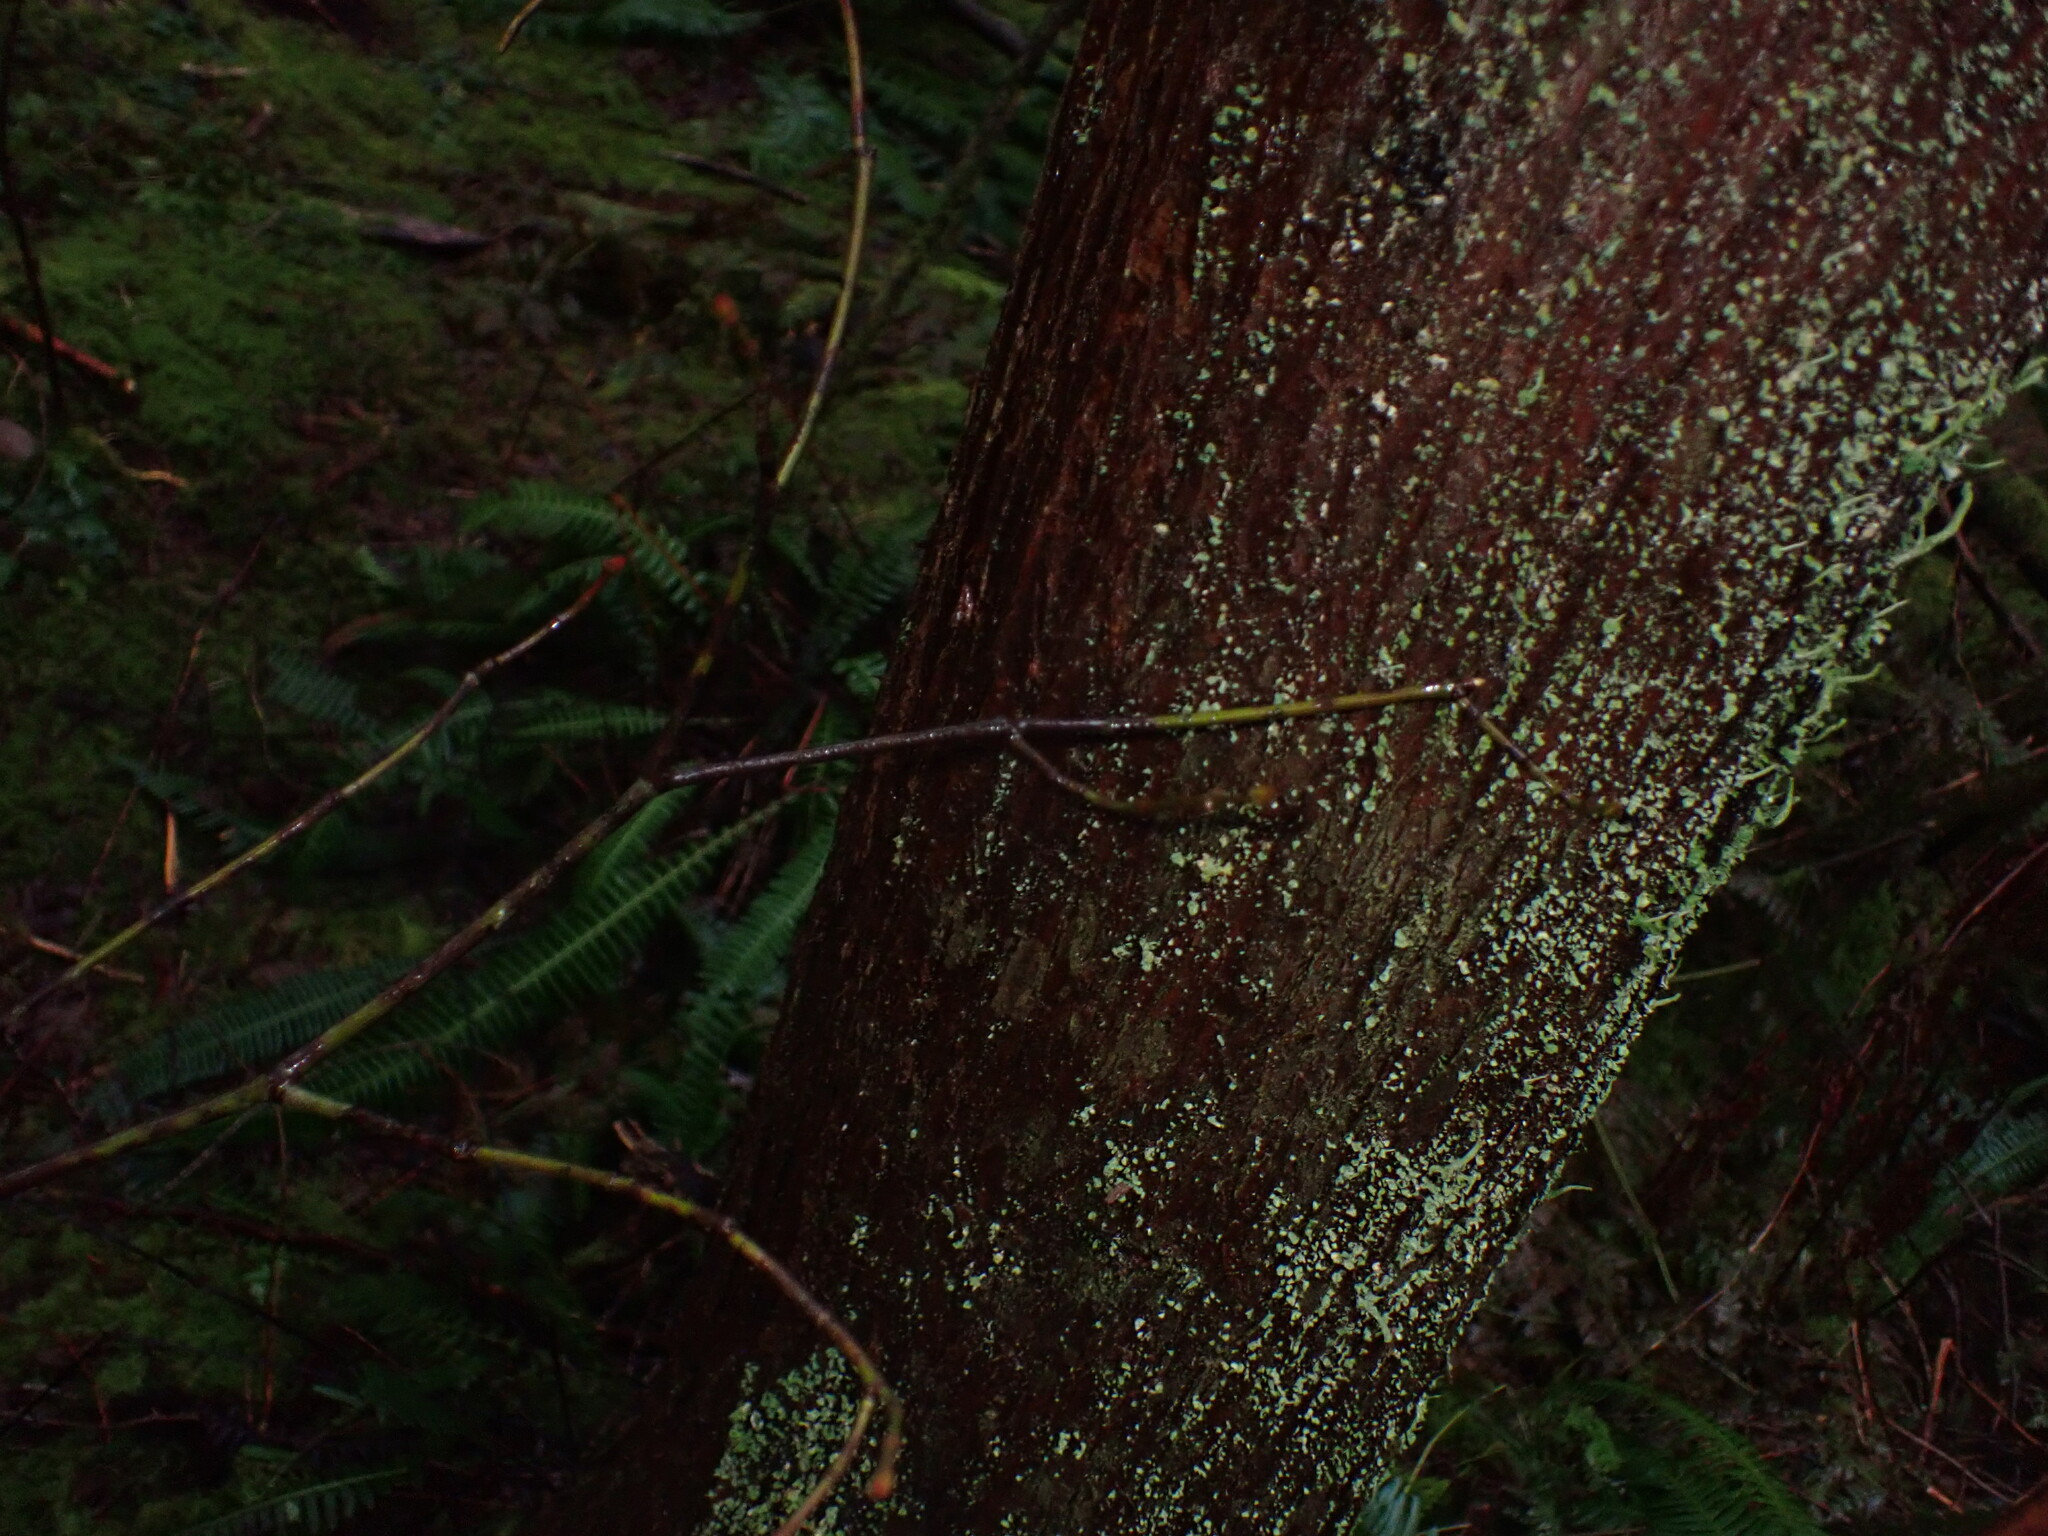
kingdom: Plantae
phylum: Tracheophyta
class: Magnoliopsida
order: Sapindales
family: Sapindaceae
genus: Acer
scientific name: Acer circinatum
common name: Vine maple
